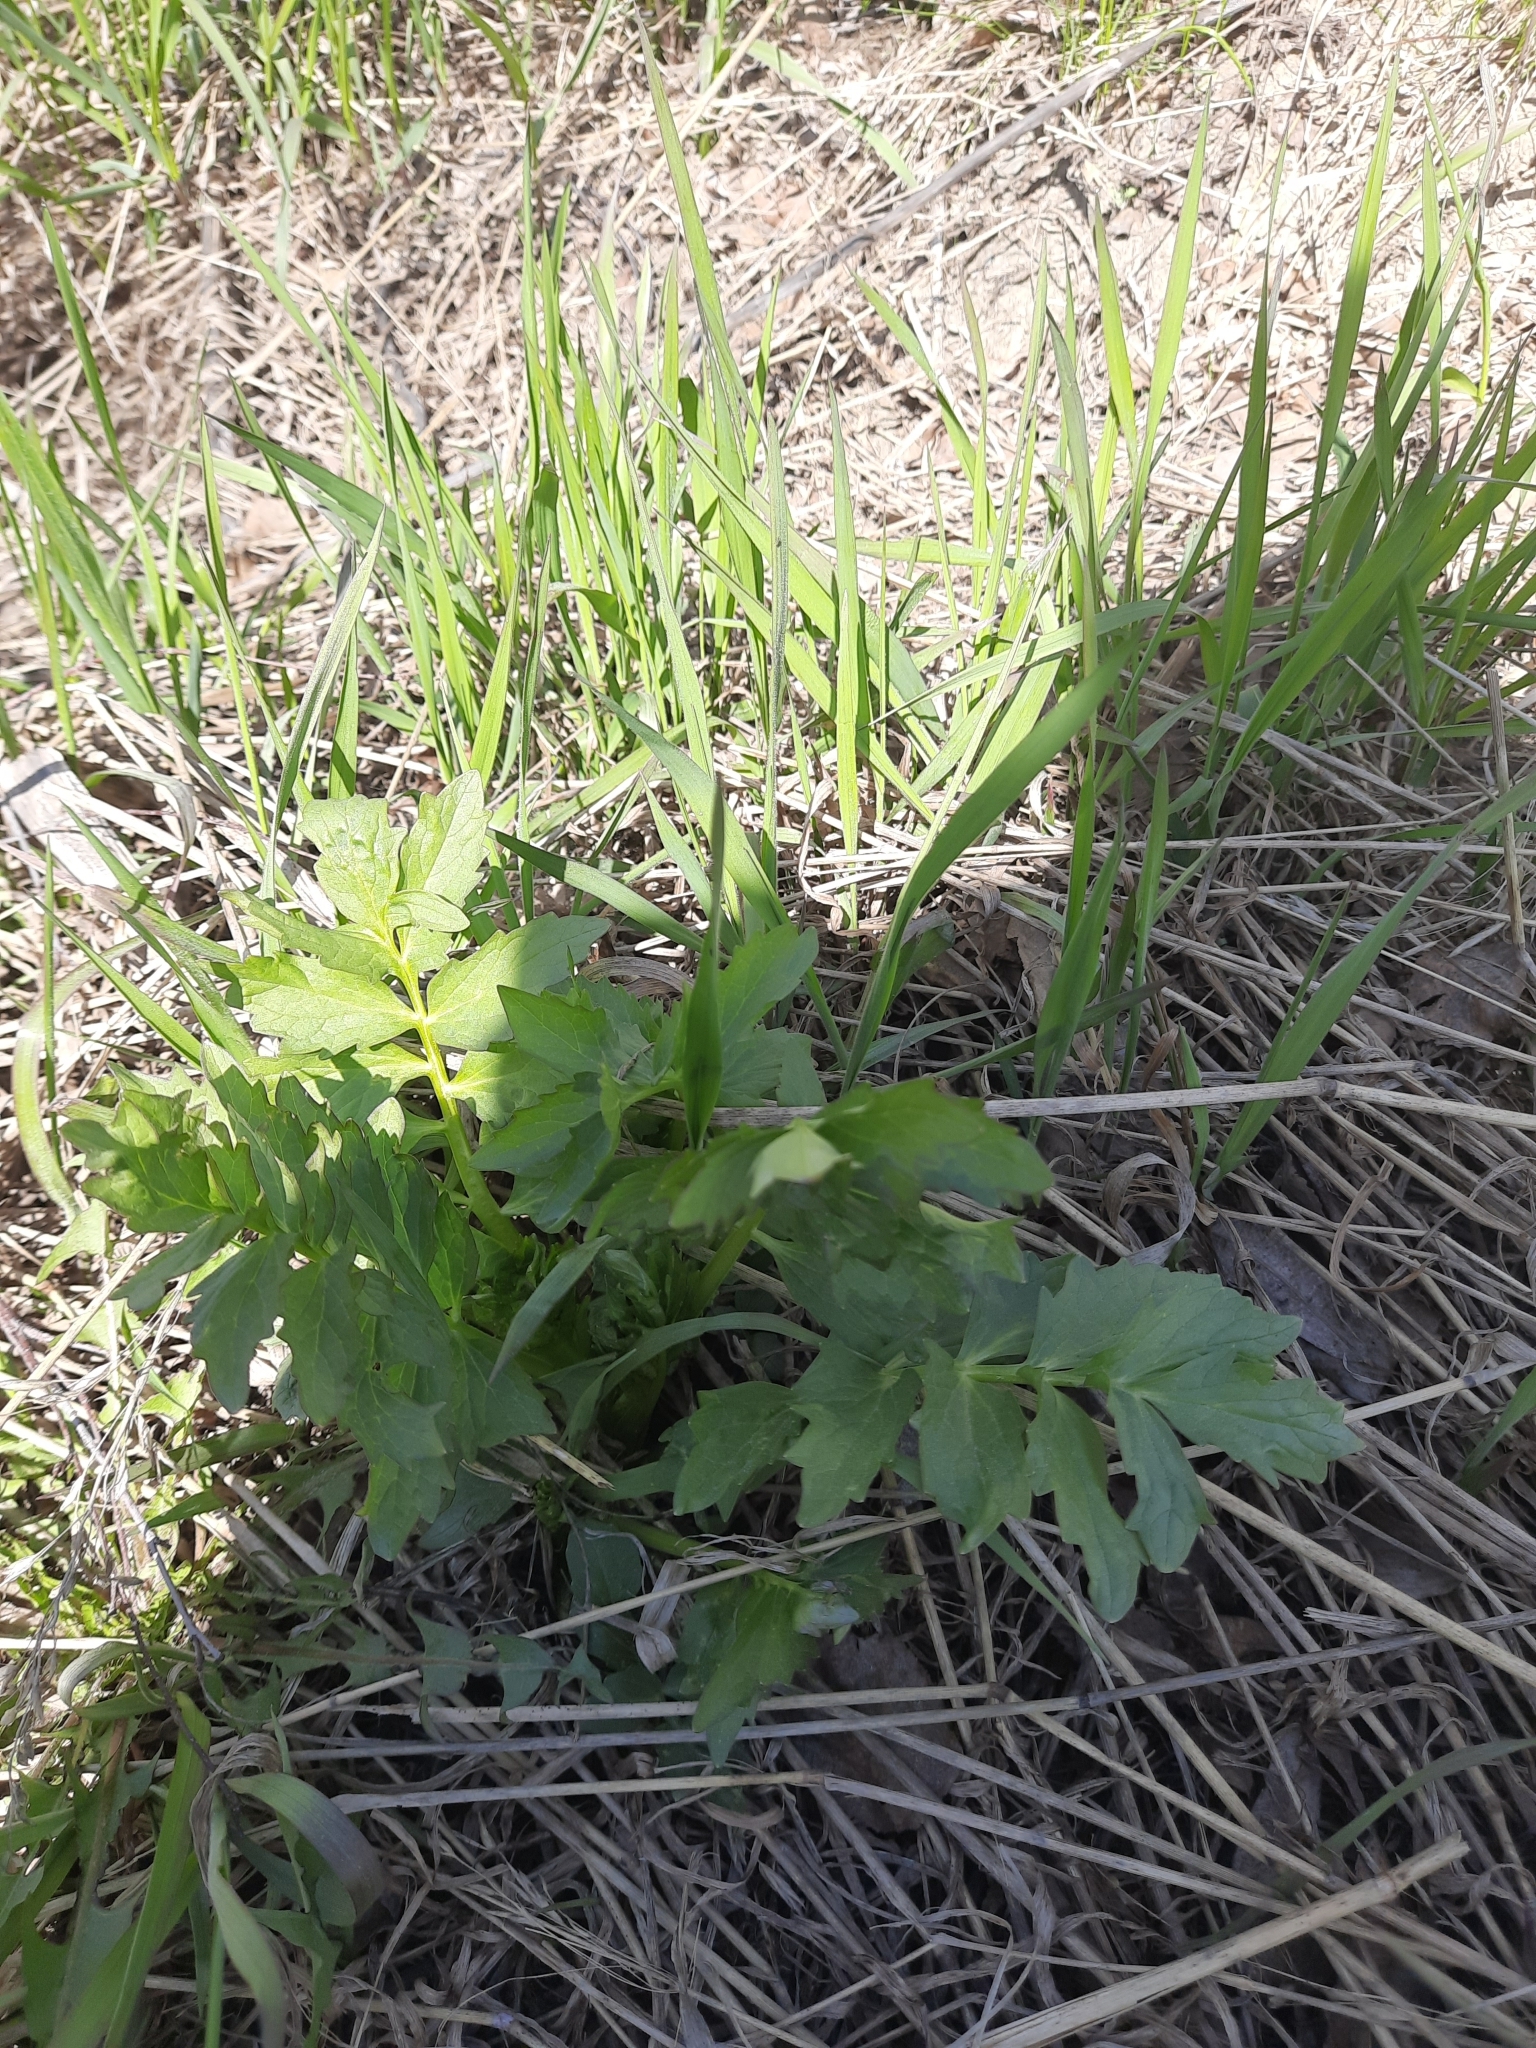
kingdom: Plantae
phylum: Tracheophyta
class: Magnoliopsida
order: Dipsacales
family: Caprifoliaceae
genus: Valeriana
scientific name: Valeriana wolgensis
